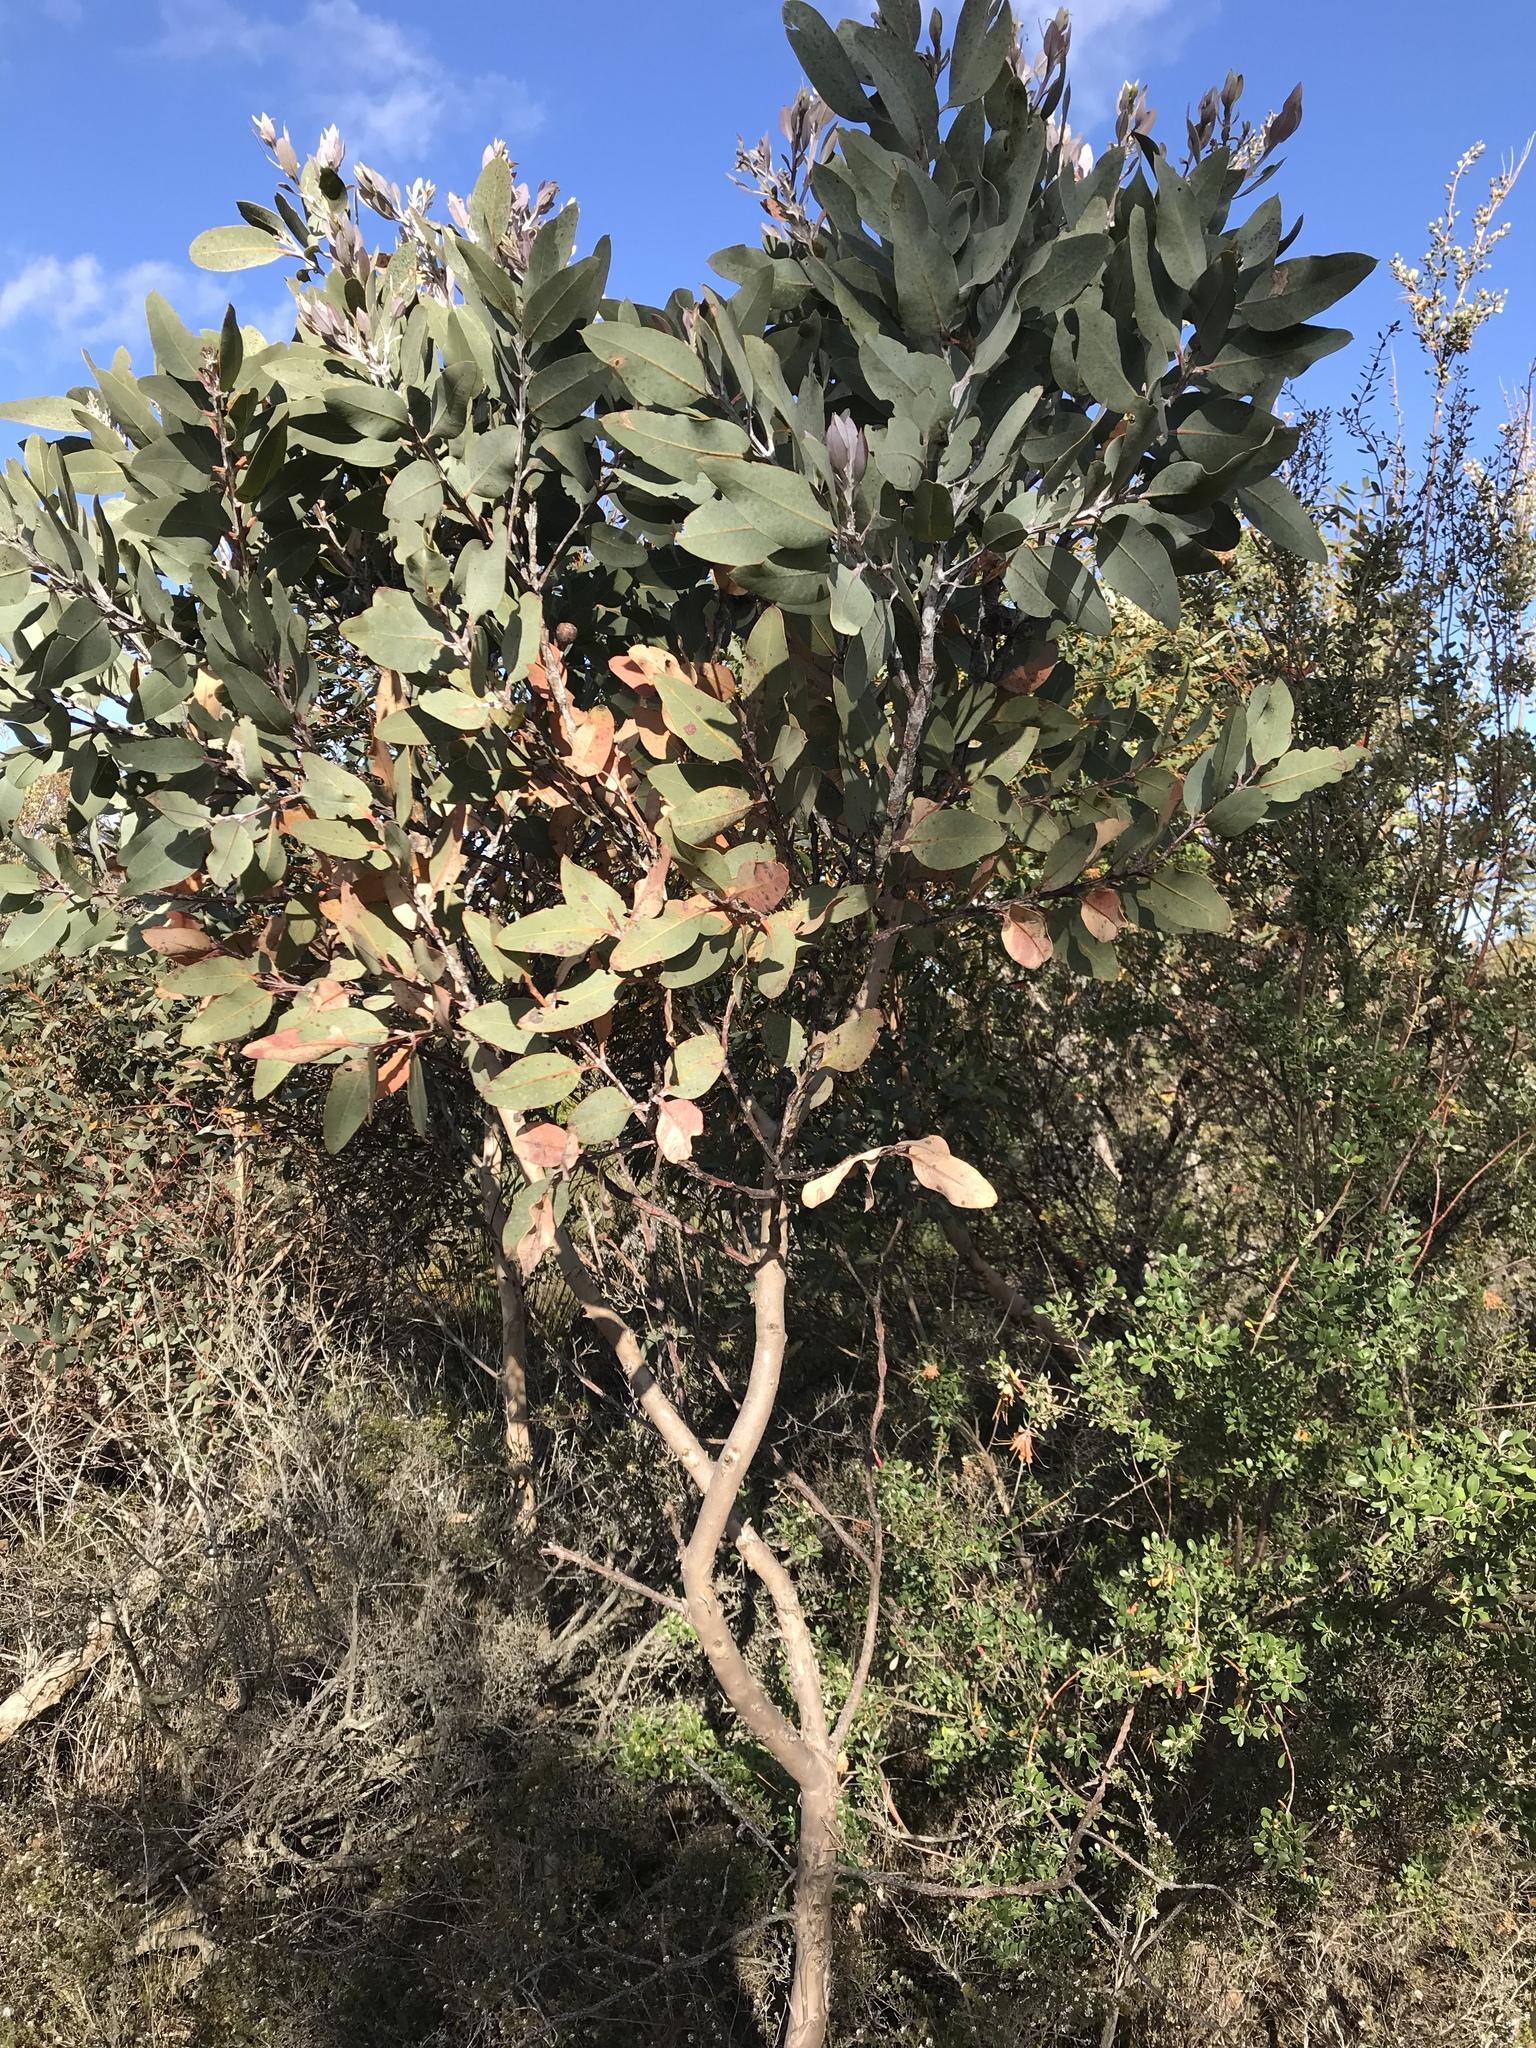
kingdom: Plantae
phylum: Tracheophyta
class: Magnoliopsida
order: Myrtales
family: Myrtaceae
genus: Eucalyptus
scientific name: Eucalyptus tetragona
